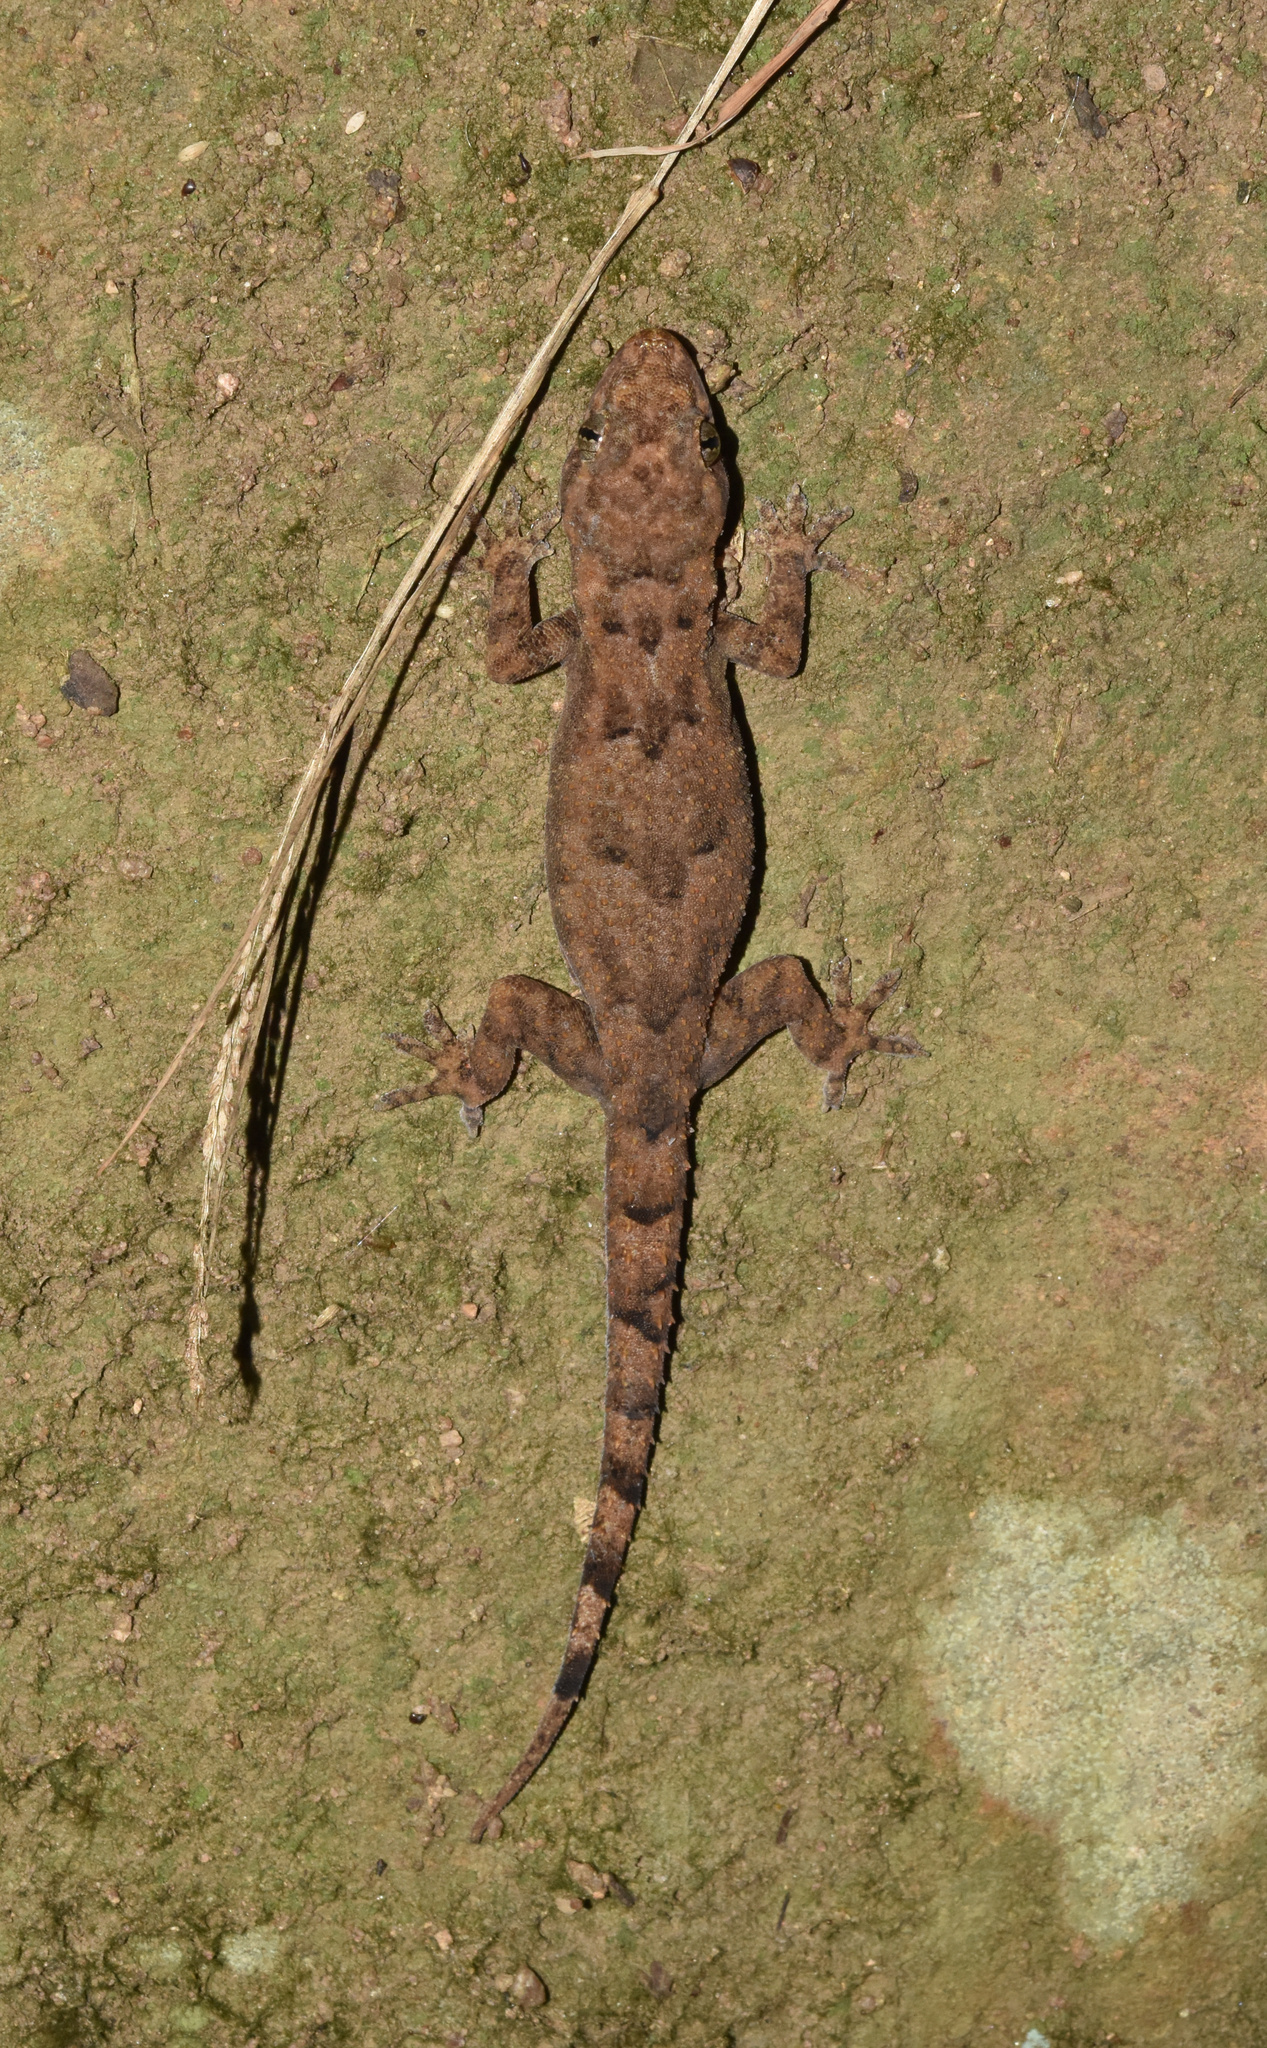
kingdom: Animalia
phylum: Chordata
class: Squamata
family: Gekkonidae
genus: Hemidactylus
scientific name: Hemidactylus mabouia
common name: House gecko
